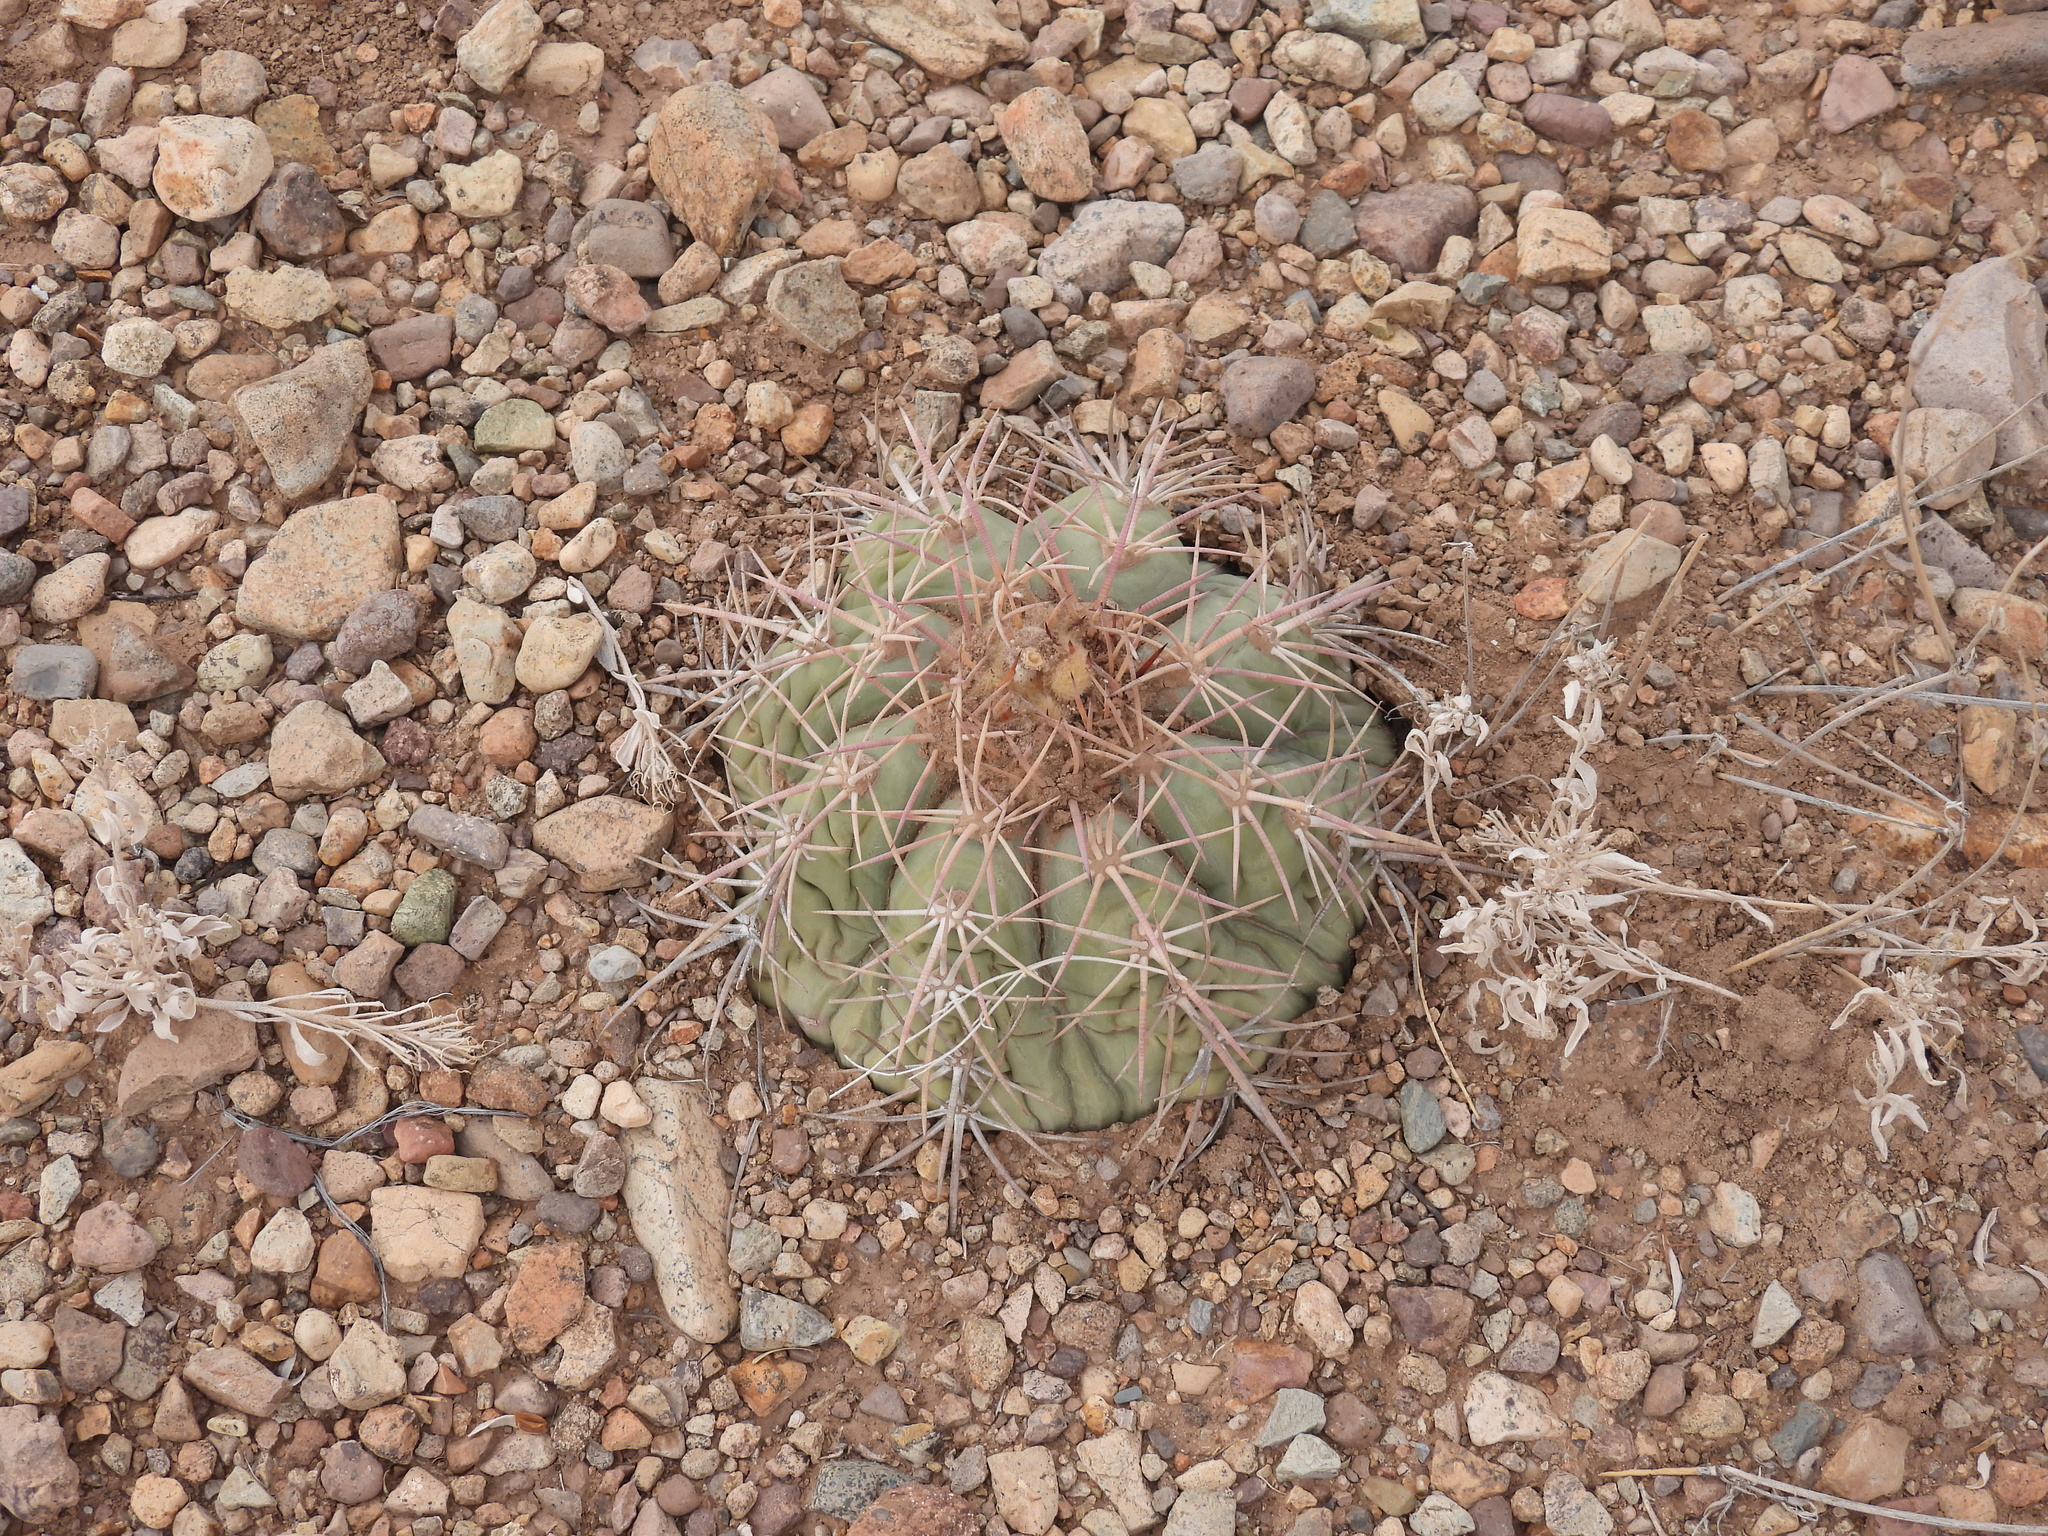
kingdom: Plantae
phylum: Tracheophyta
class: Magnoliopsida
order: Caryophyllales
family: Cactaceae
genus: Echinocactus
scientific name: Echinocactus horizonthalonius
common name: Devilshead
